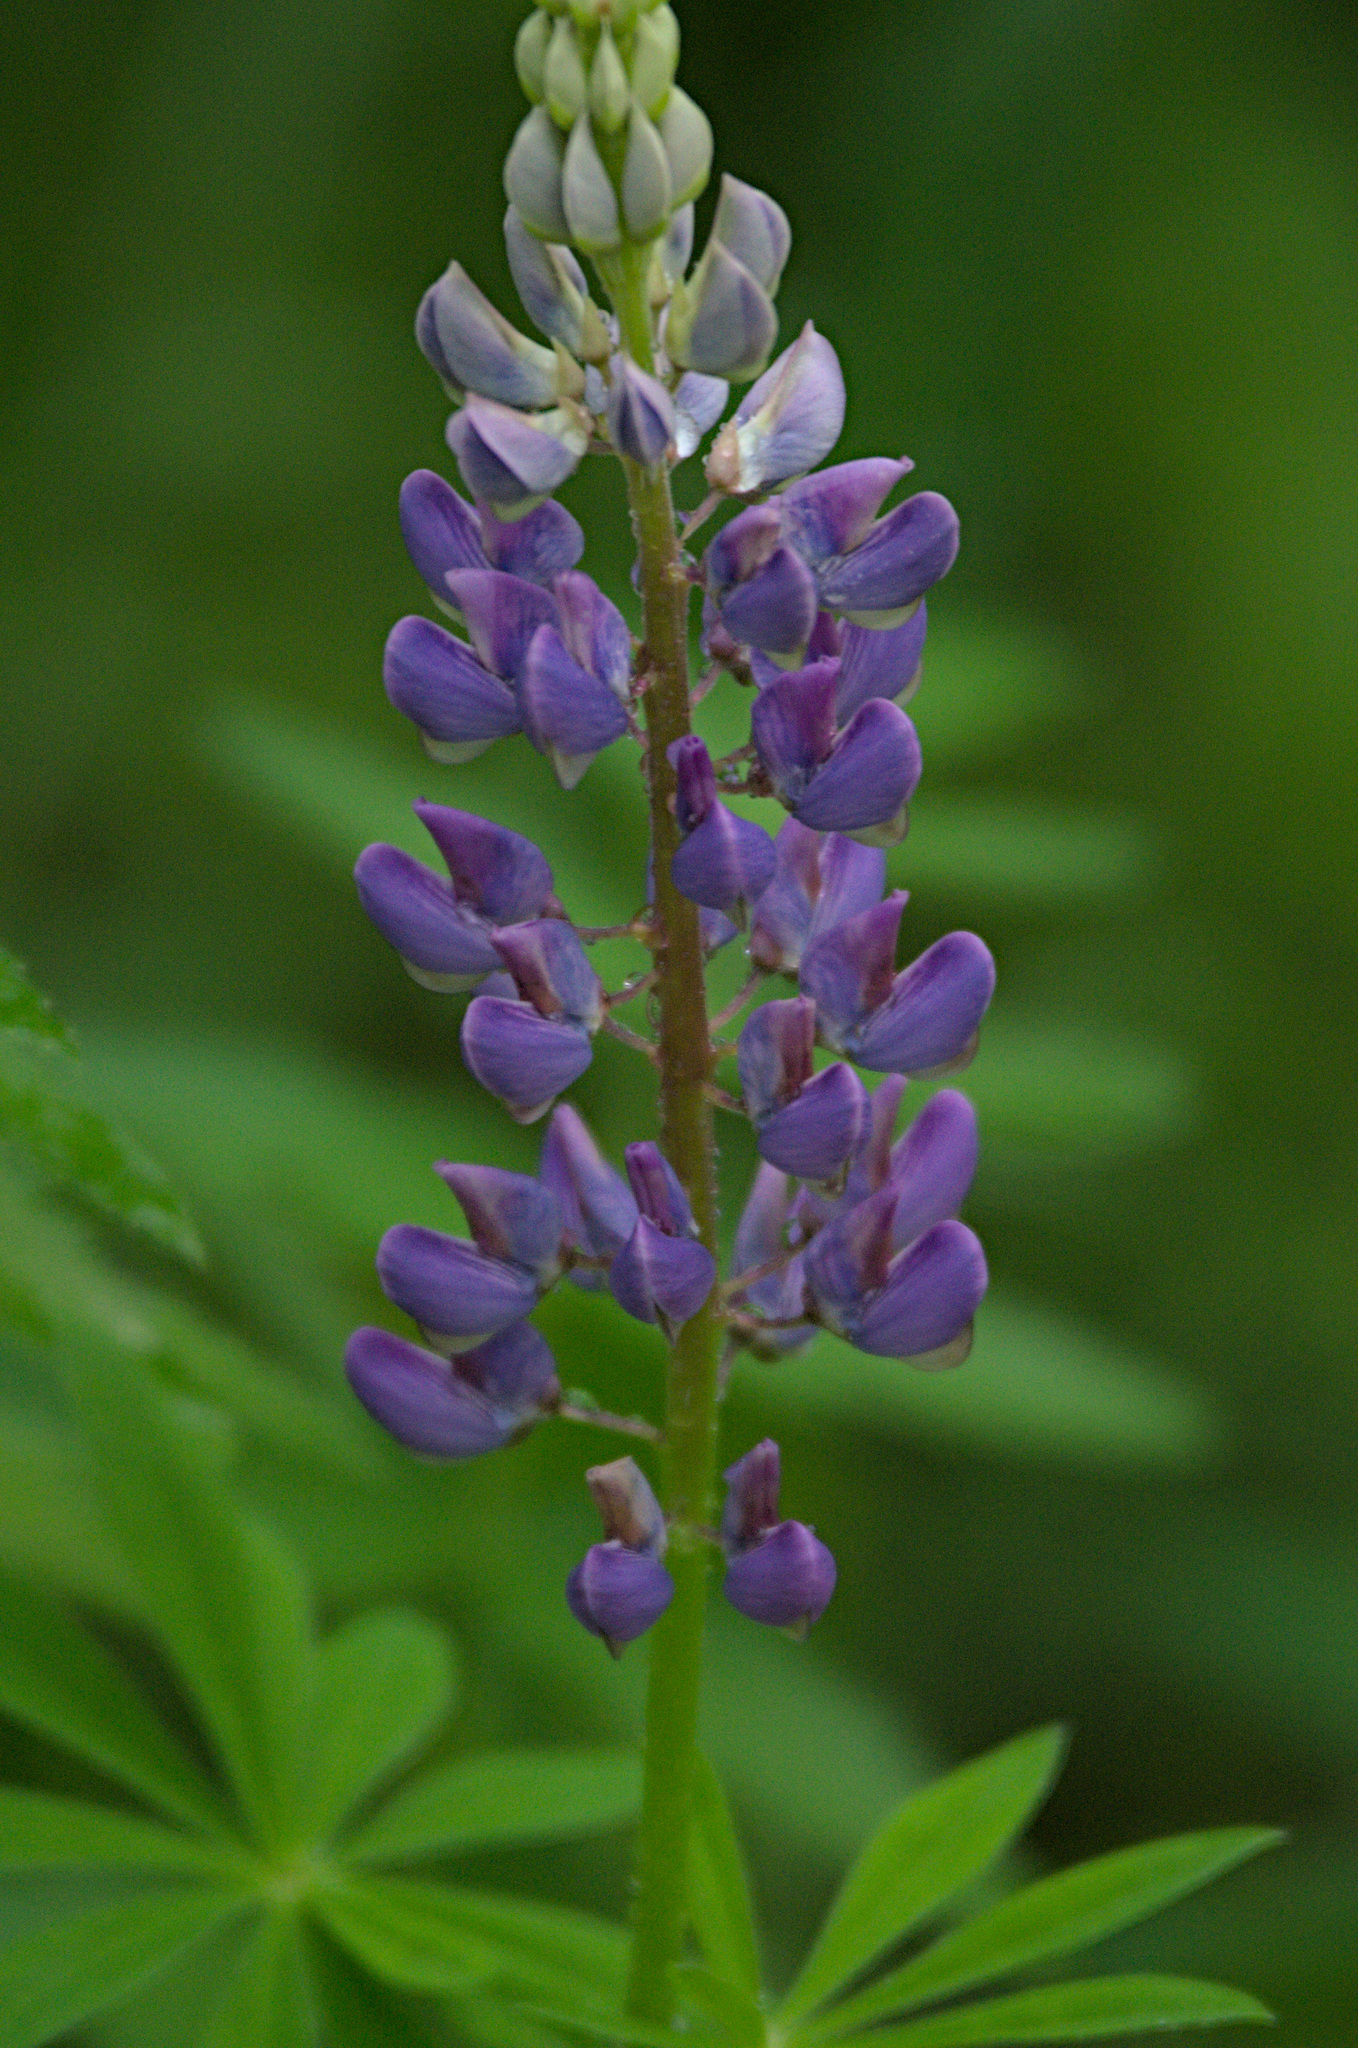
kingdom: Plantae
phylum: Tracheophyta
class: Magnoliopsida
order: Fabales
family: Fabaceae
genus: Lupinus
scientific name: Lupinus polyphyllus
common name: Garden lupin
